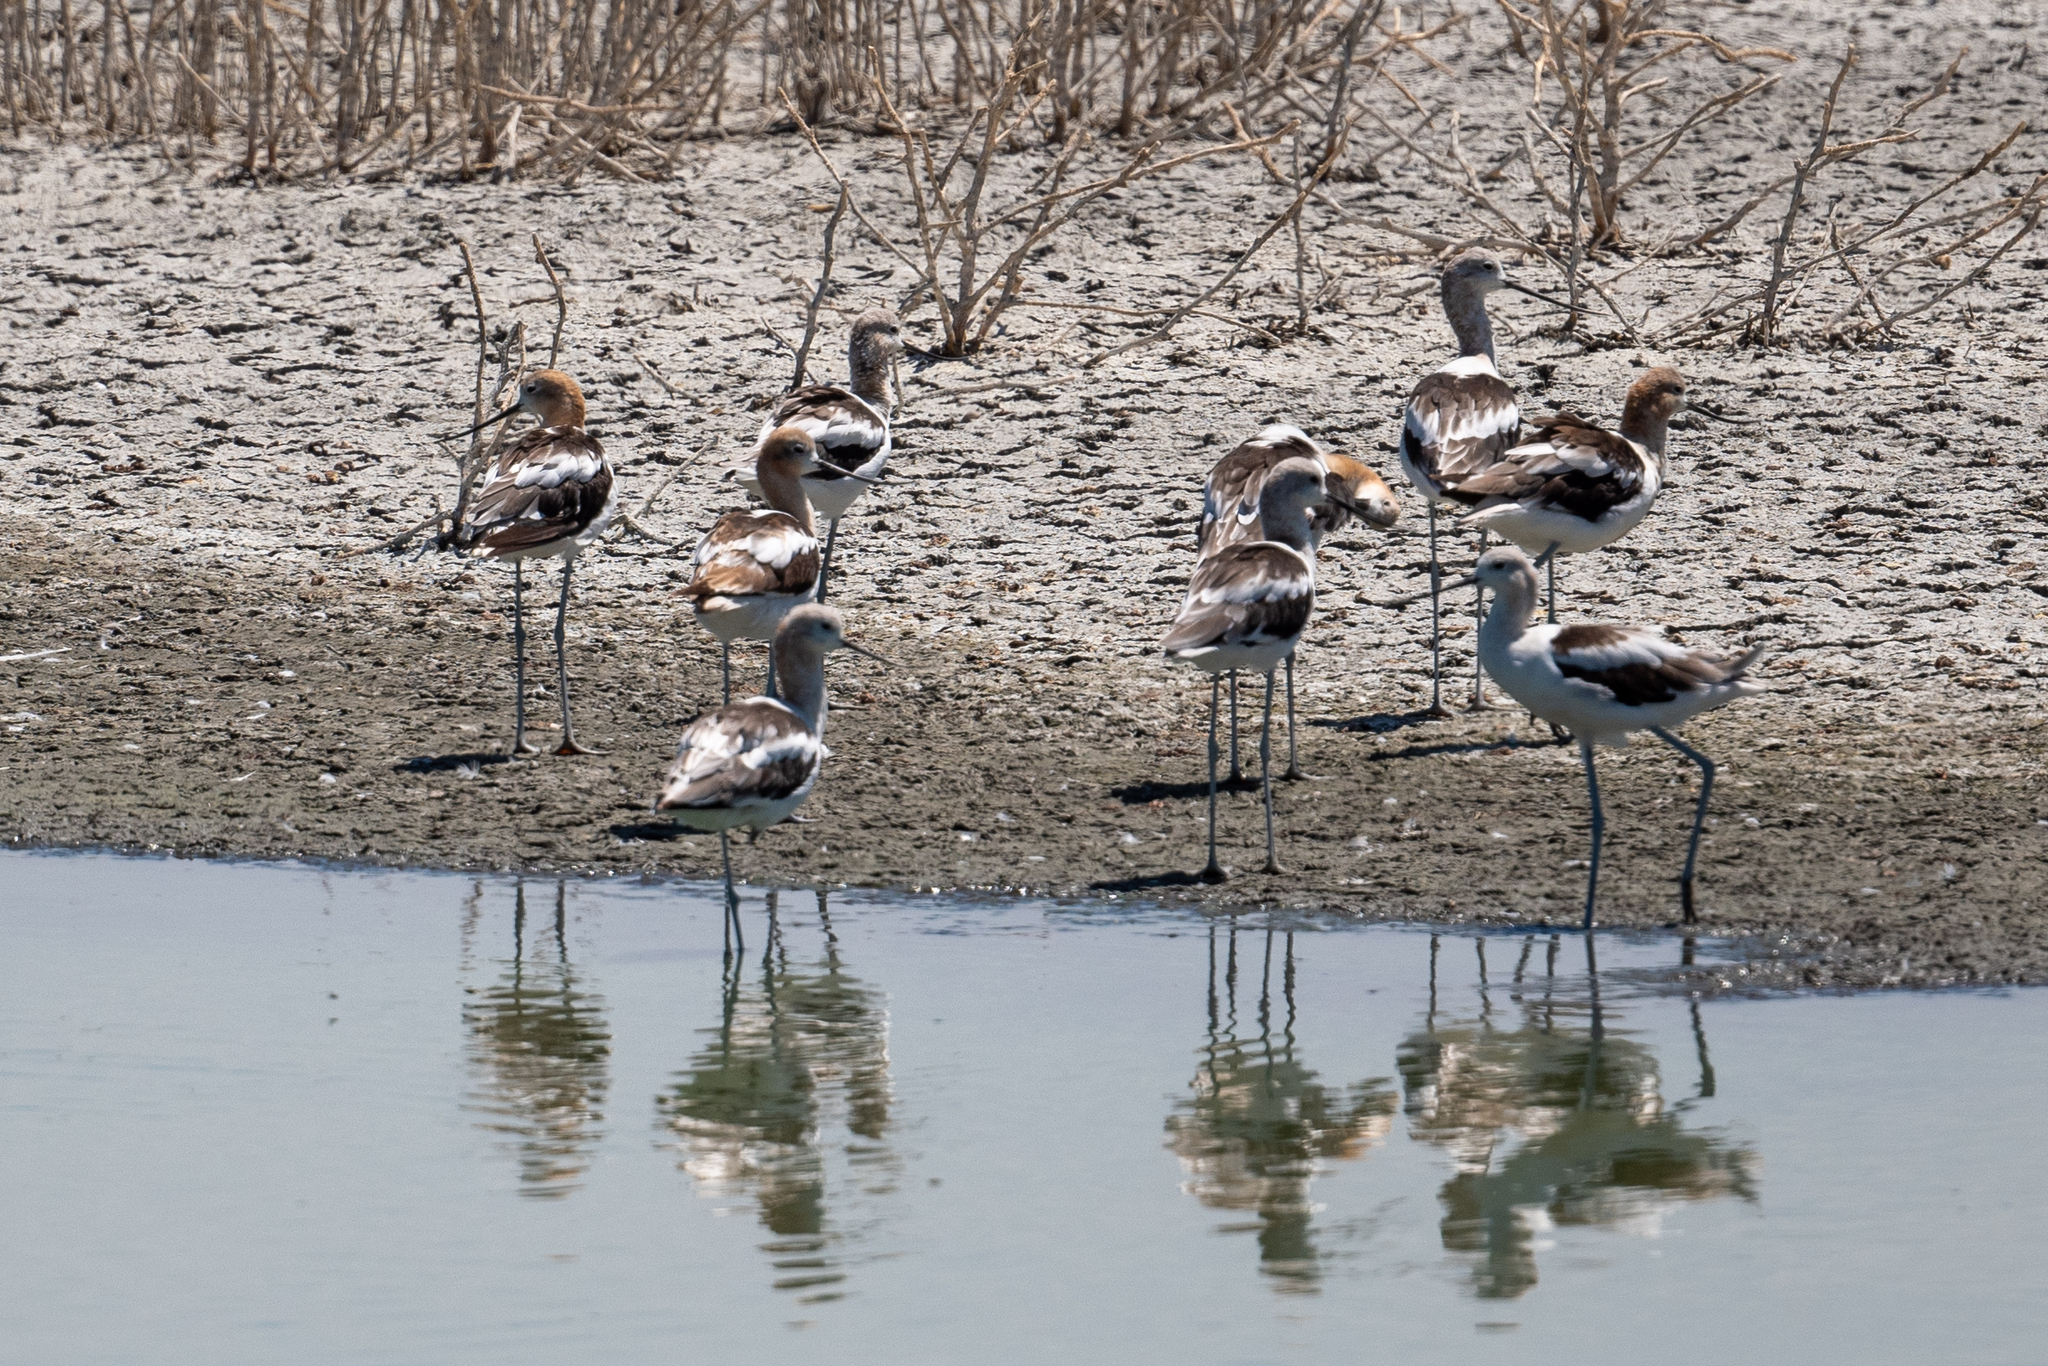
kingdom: Animalia
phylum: Chordata
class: Aves
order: Charadriiformes
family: Recurvirostridae
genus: Recurvirostra
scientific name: Recurvirostra americana
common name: American avocet
